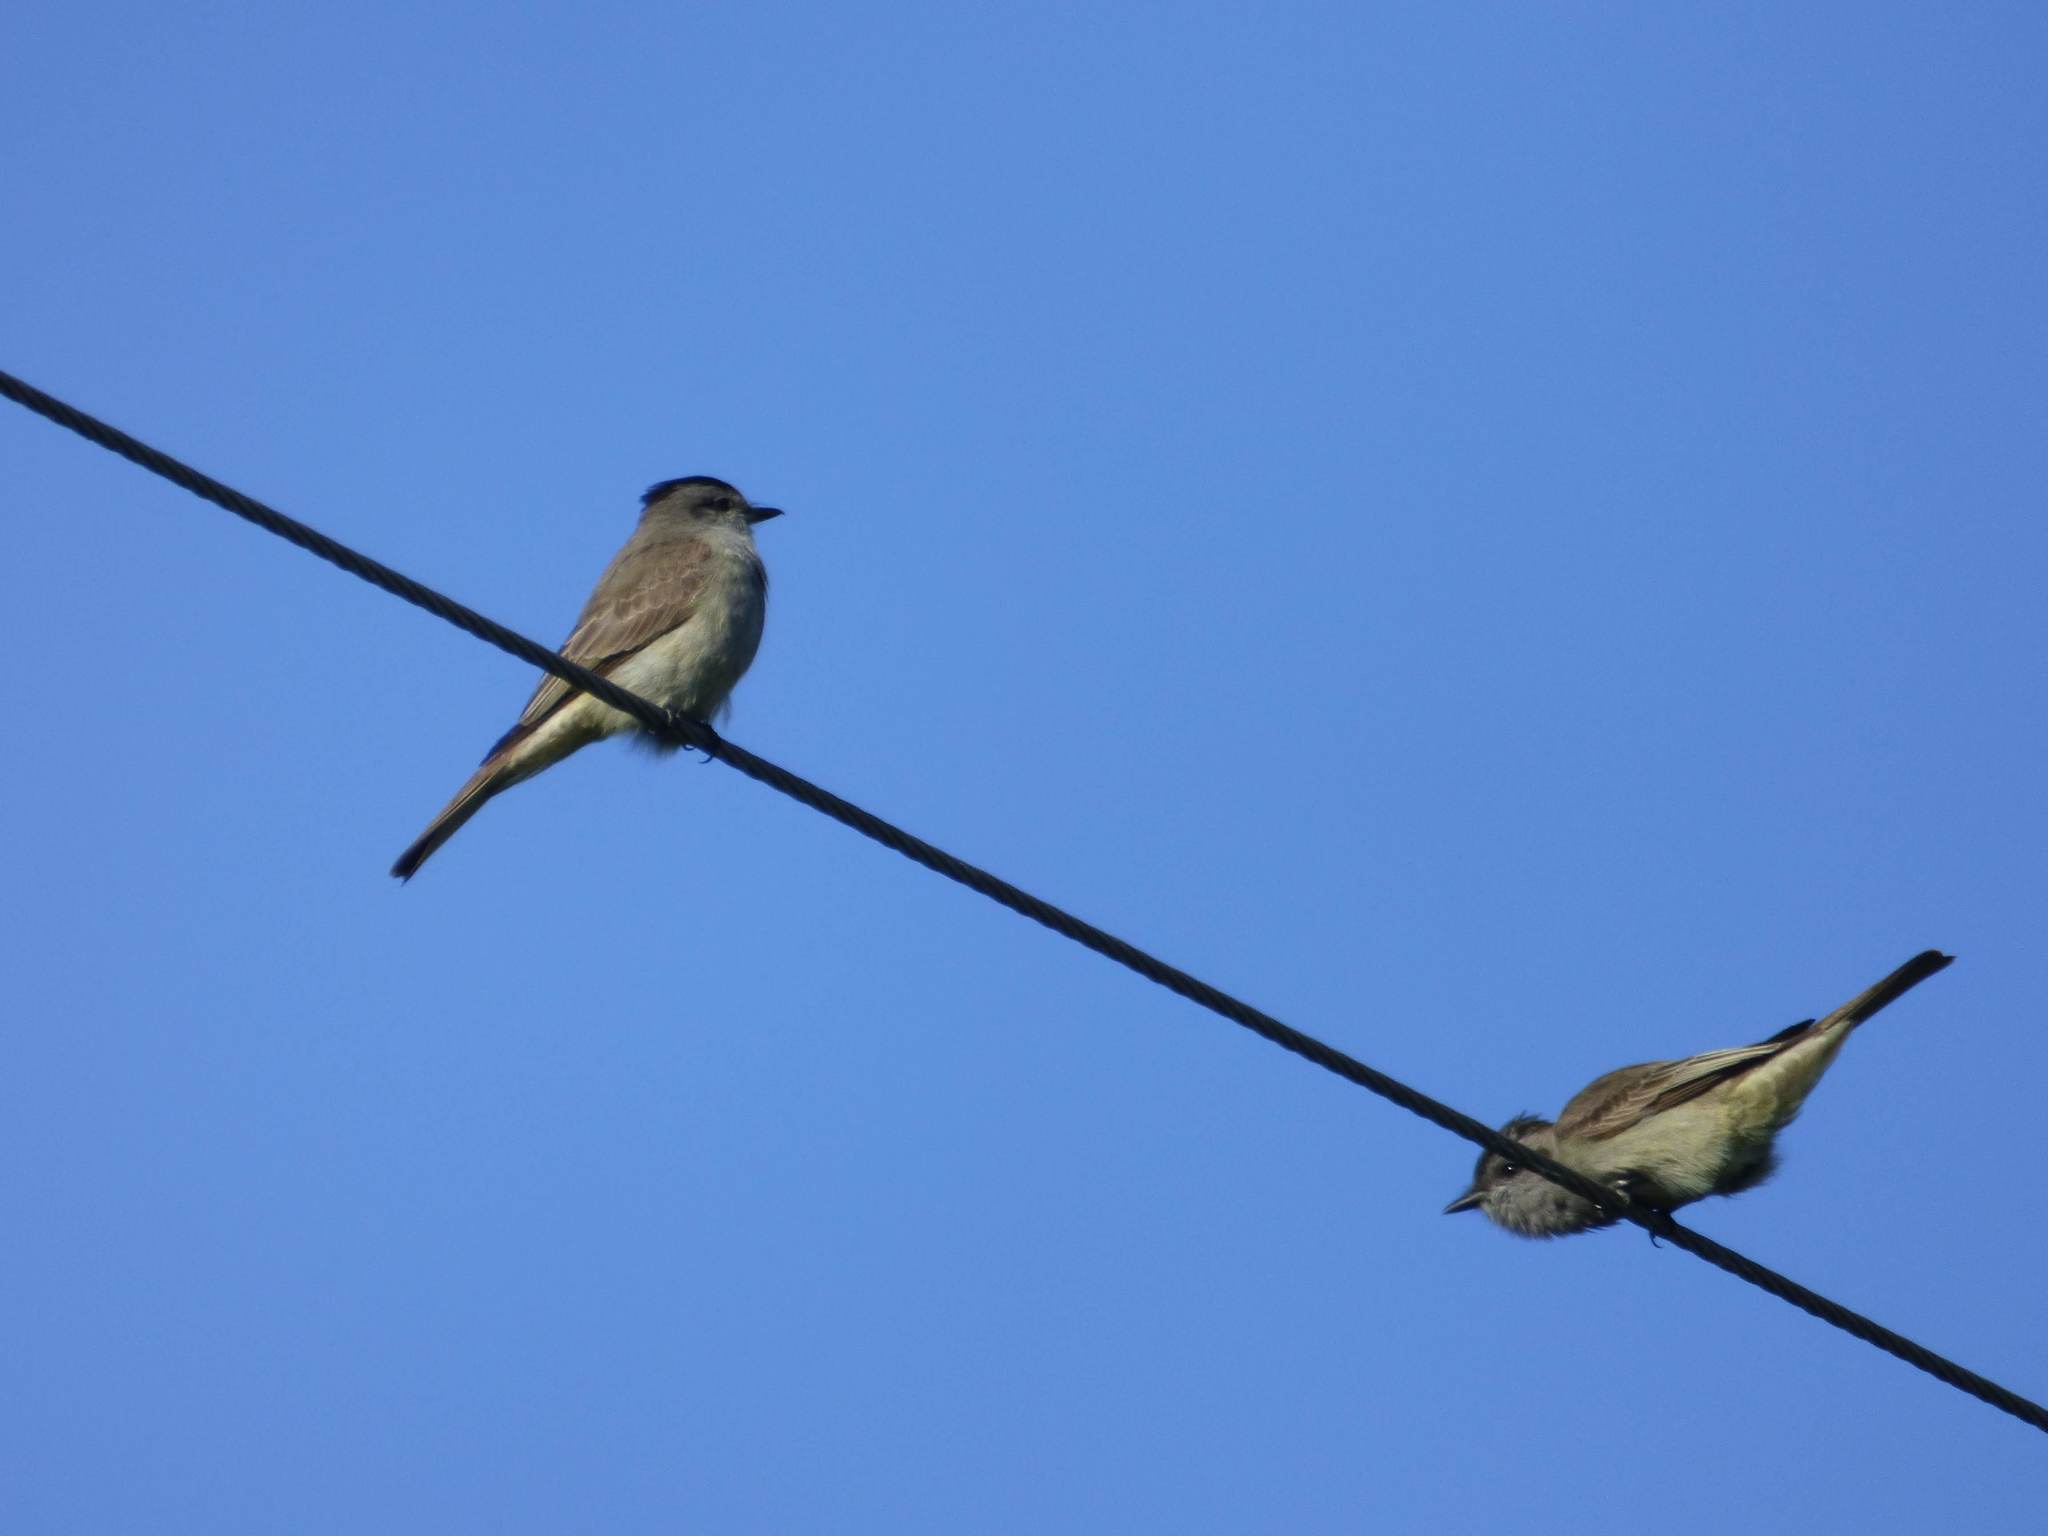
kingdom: Animalia
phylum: Chordata
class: Aves
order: Passeriformes
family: Tyrannidae
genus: Empidonomus
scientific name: Empidonomus aurantioatrocristatus
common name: Crowned slaty flycatcher
